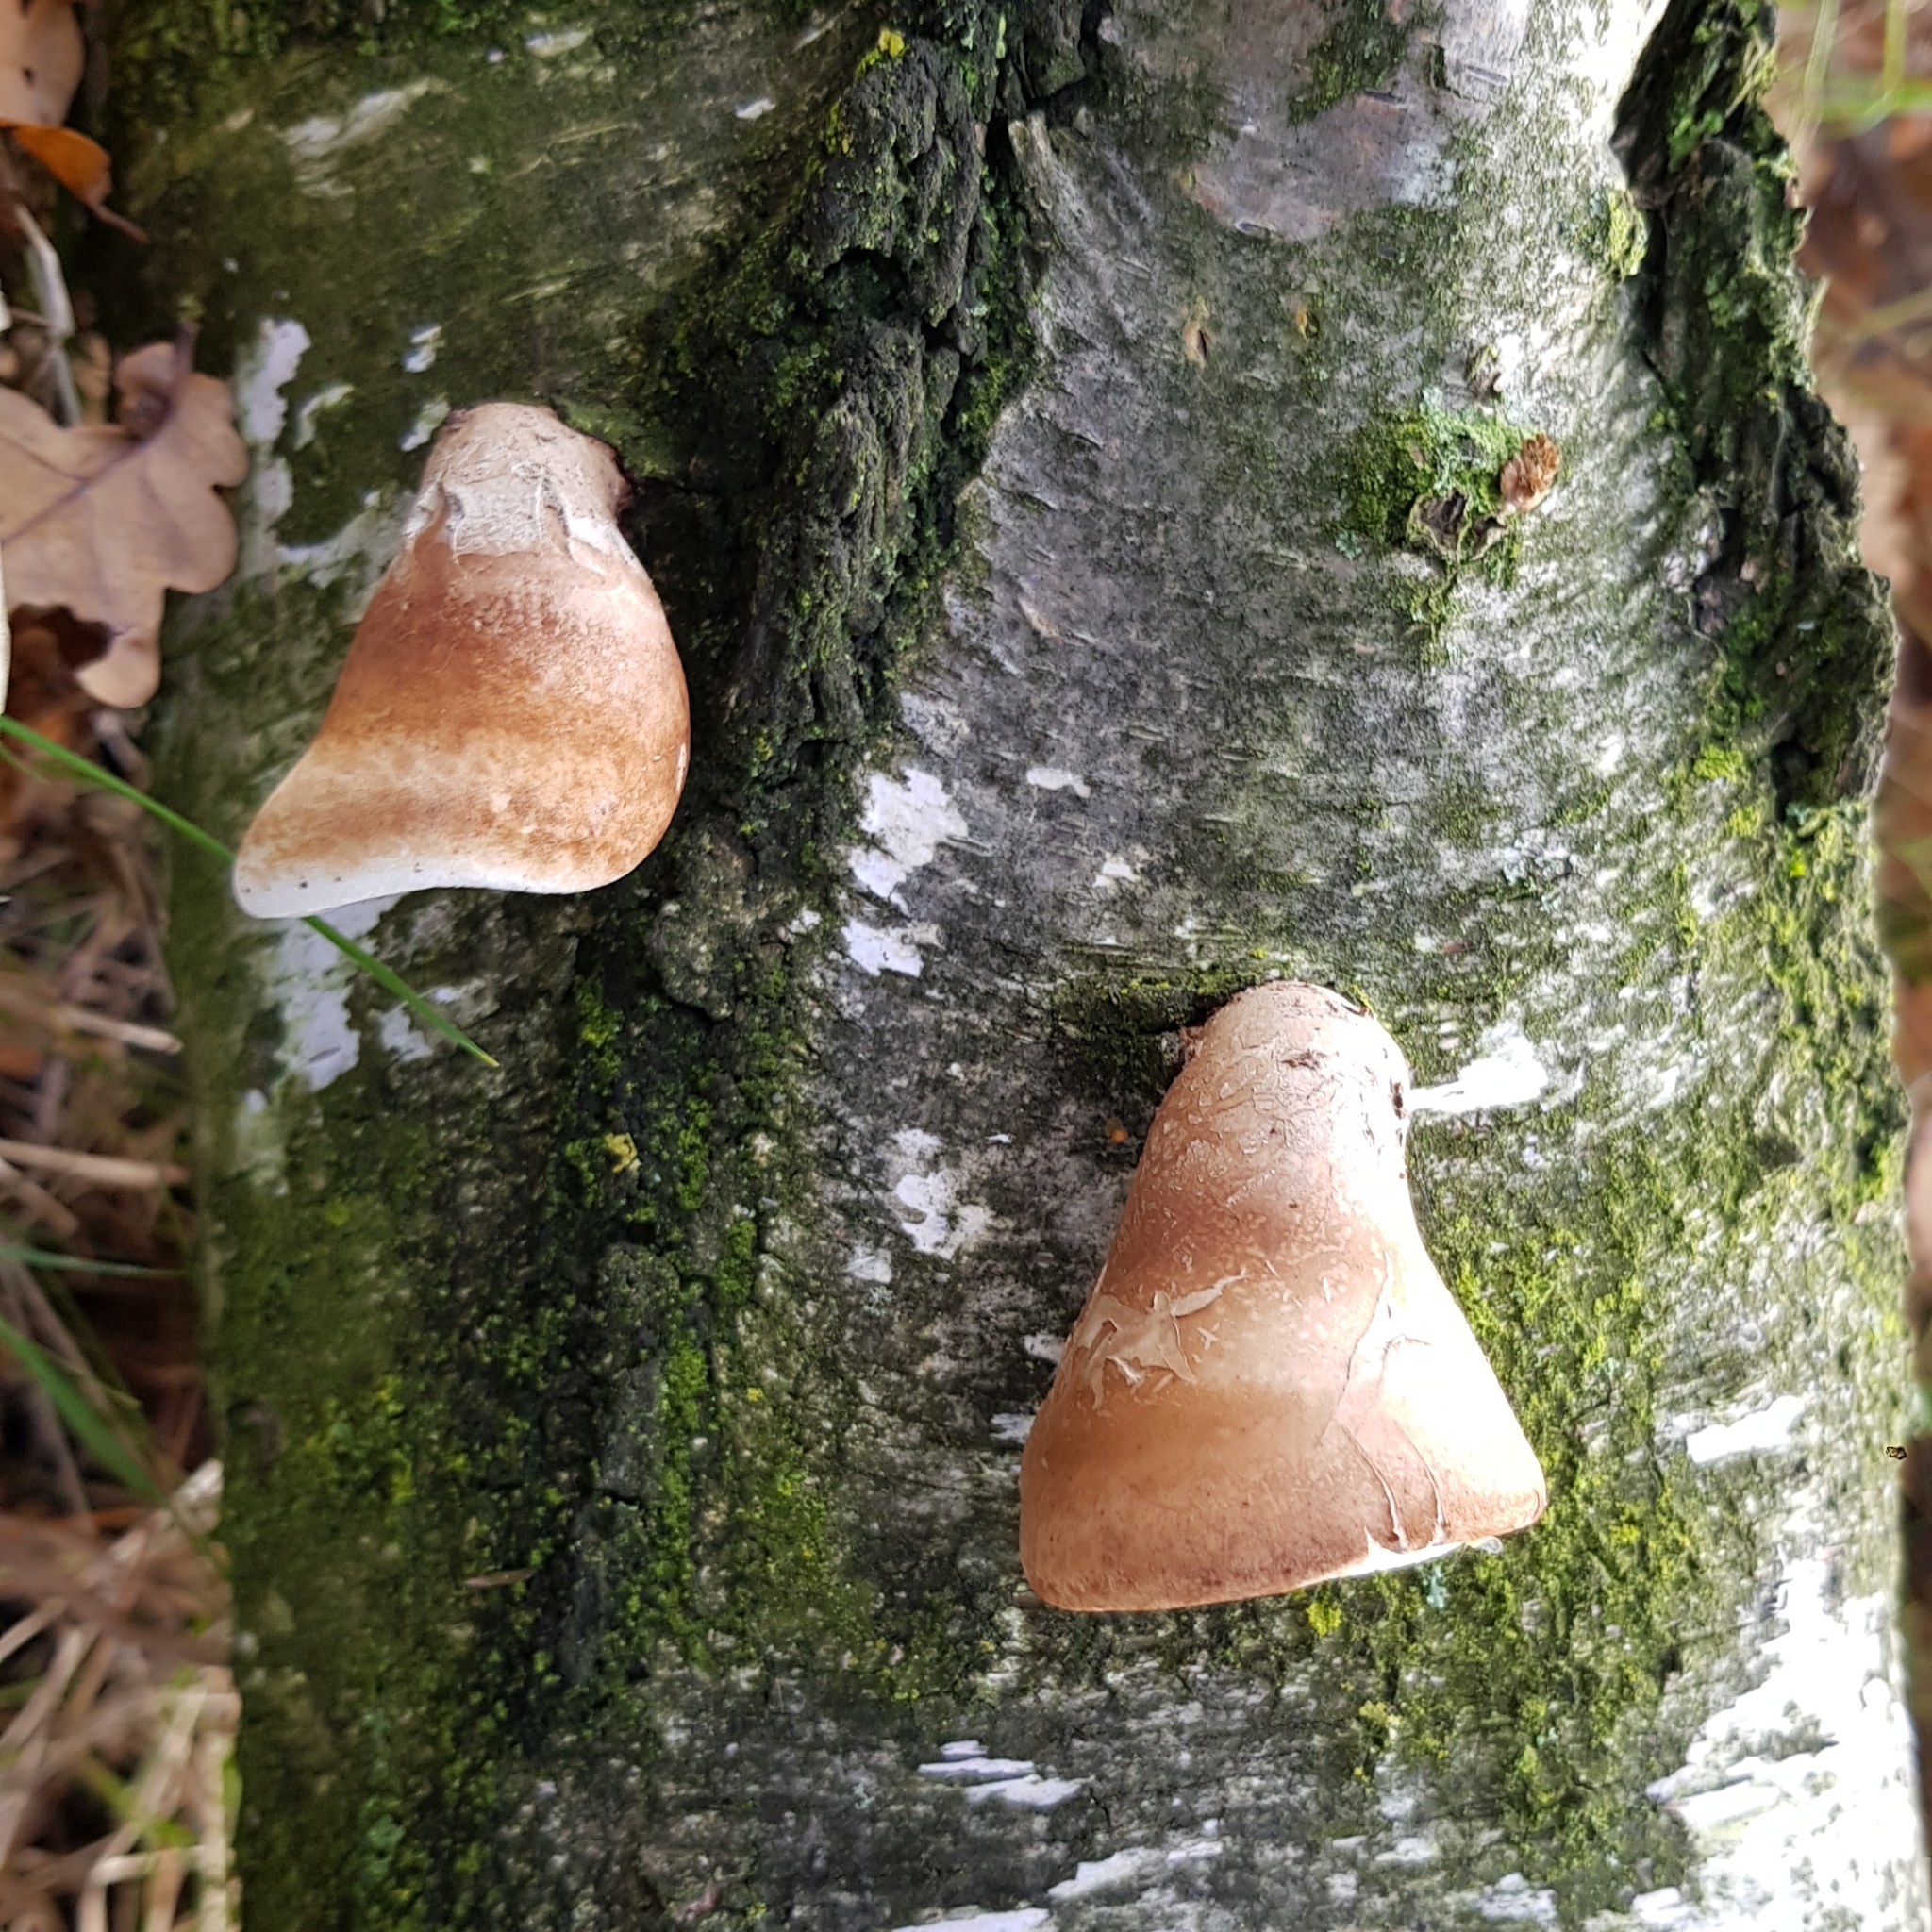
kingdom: Fungi
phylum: Basidiomycota
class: Agaricomycetes
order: Polyporales
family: Fomitopsidaceae
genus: Fomitopsis
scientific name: Fomitopsis betulina
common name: Birch polypore
